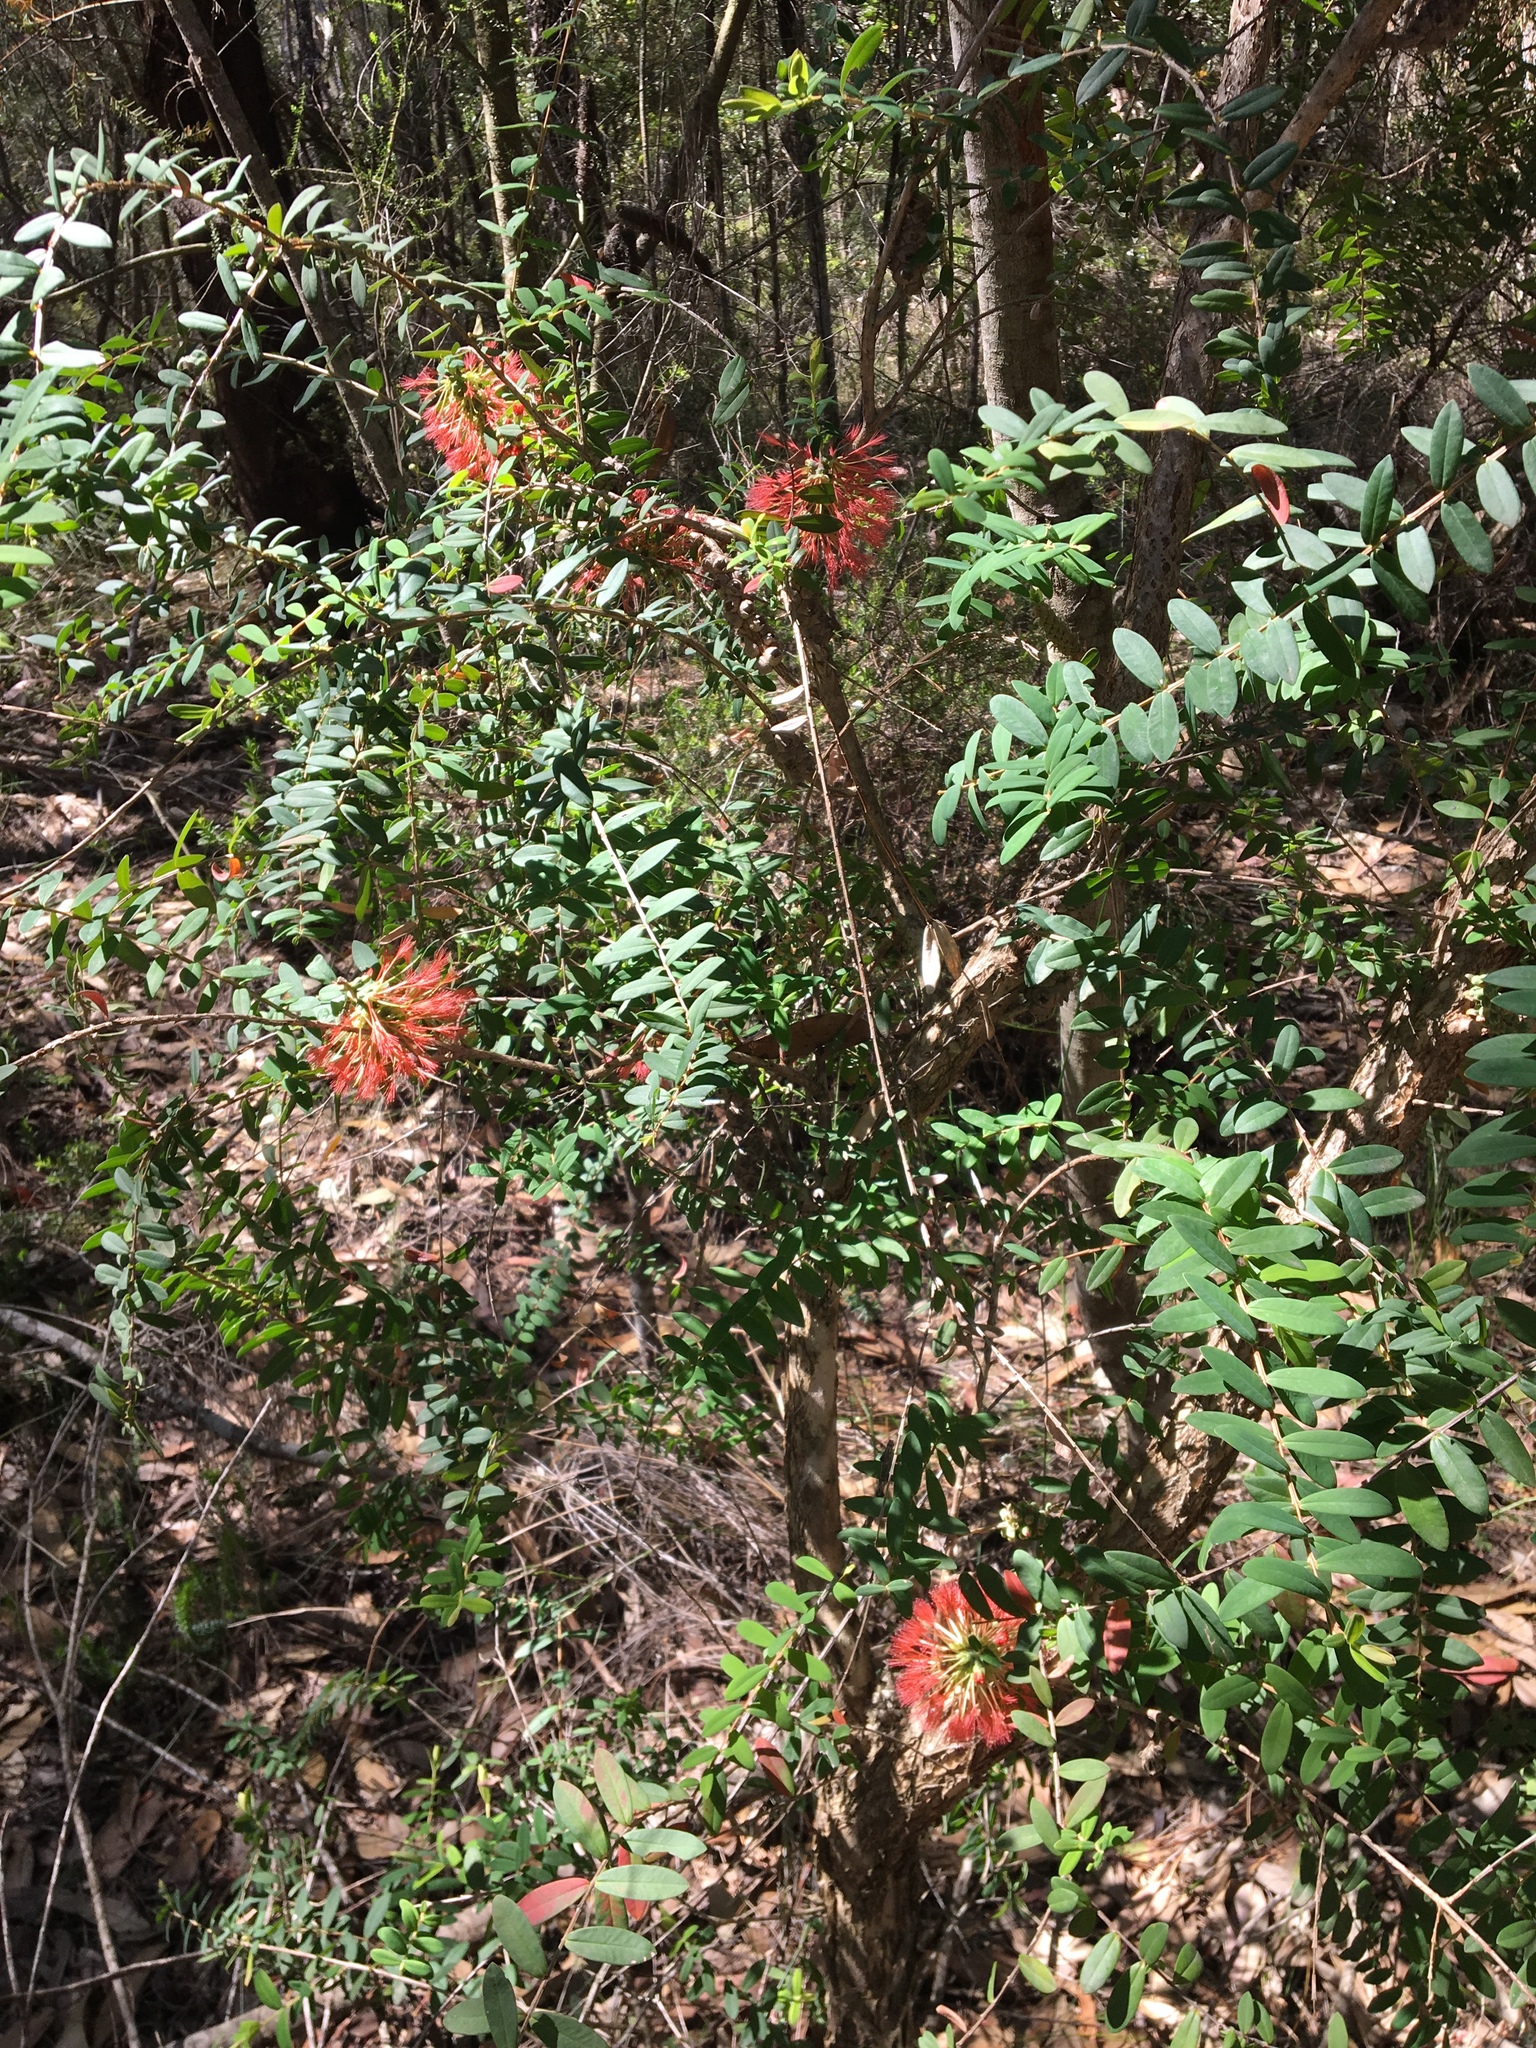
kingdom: Plantae
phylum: Tracheophyta
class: Magnoliopsida
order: Myrtales
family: Myrtaceae
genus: Melaleuca
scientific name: Melaleuca hypericifolia
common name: Red honey myrtle
